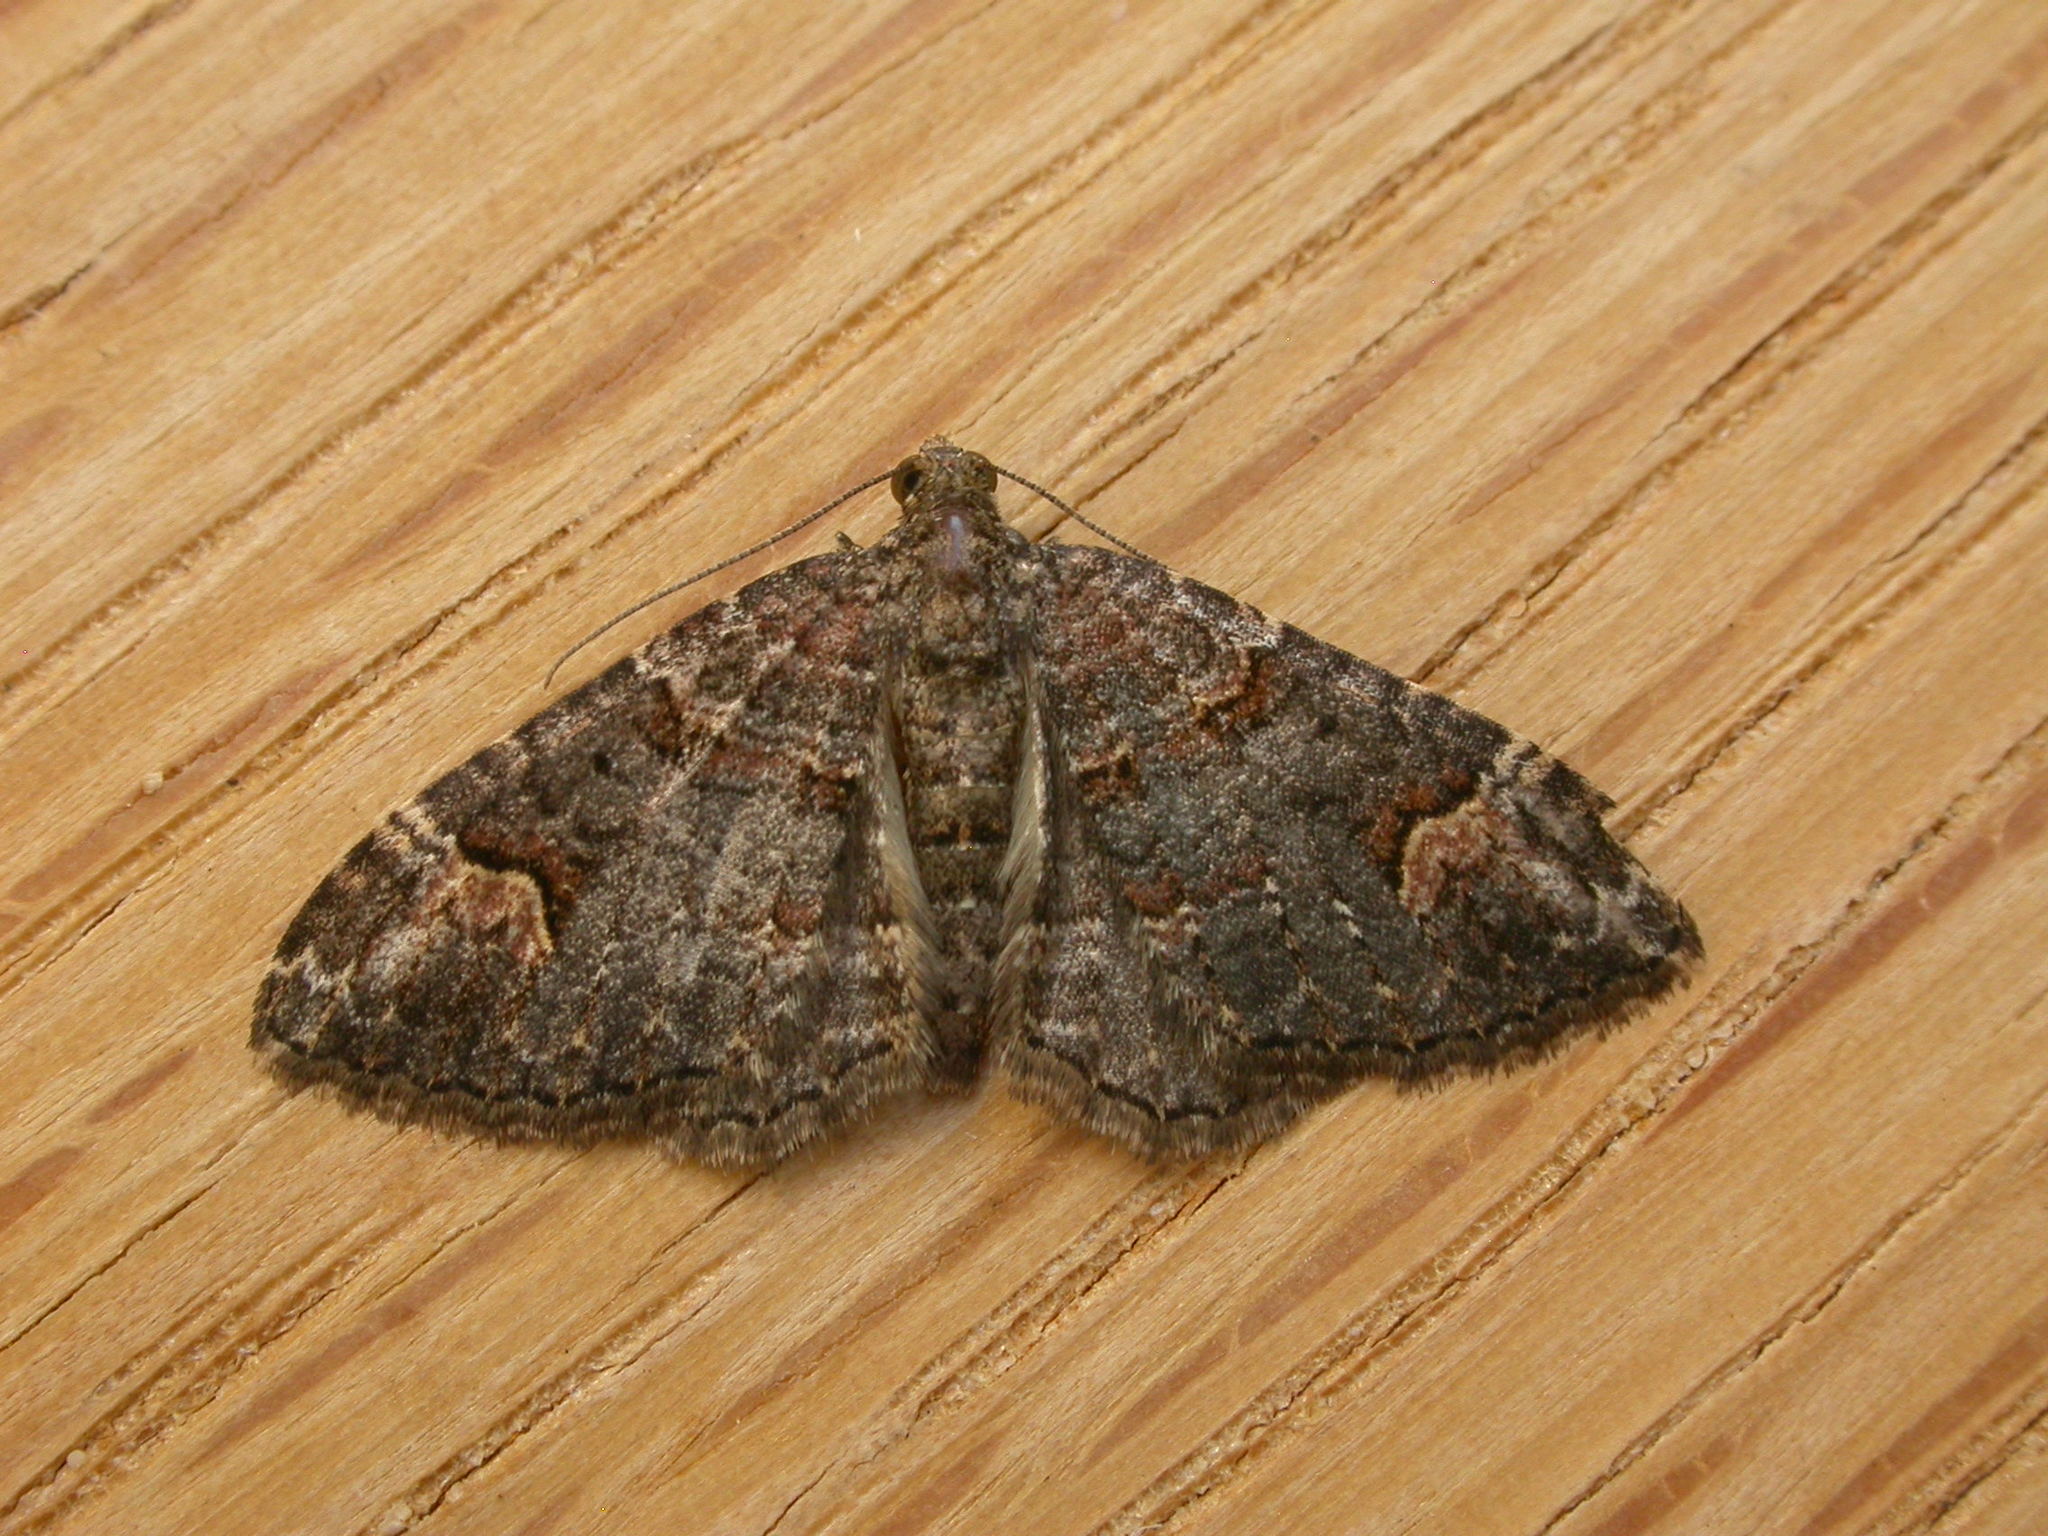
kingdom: Animalia
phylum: Arthropoda
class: Insecta
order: Lepidoptera
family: Geometridae
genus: Epyaxa
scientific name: Epyaxa sodaliata
